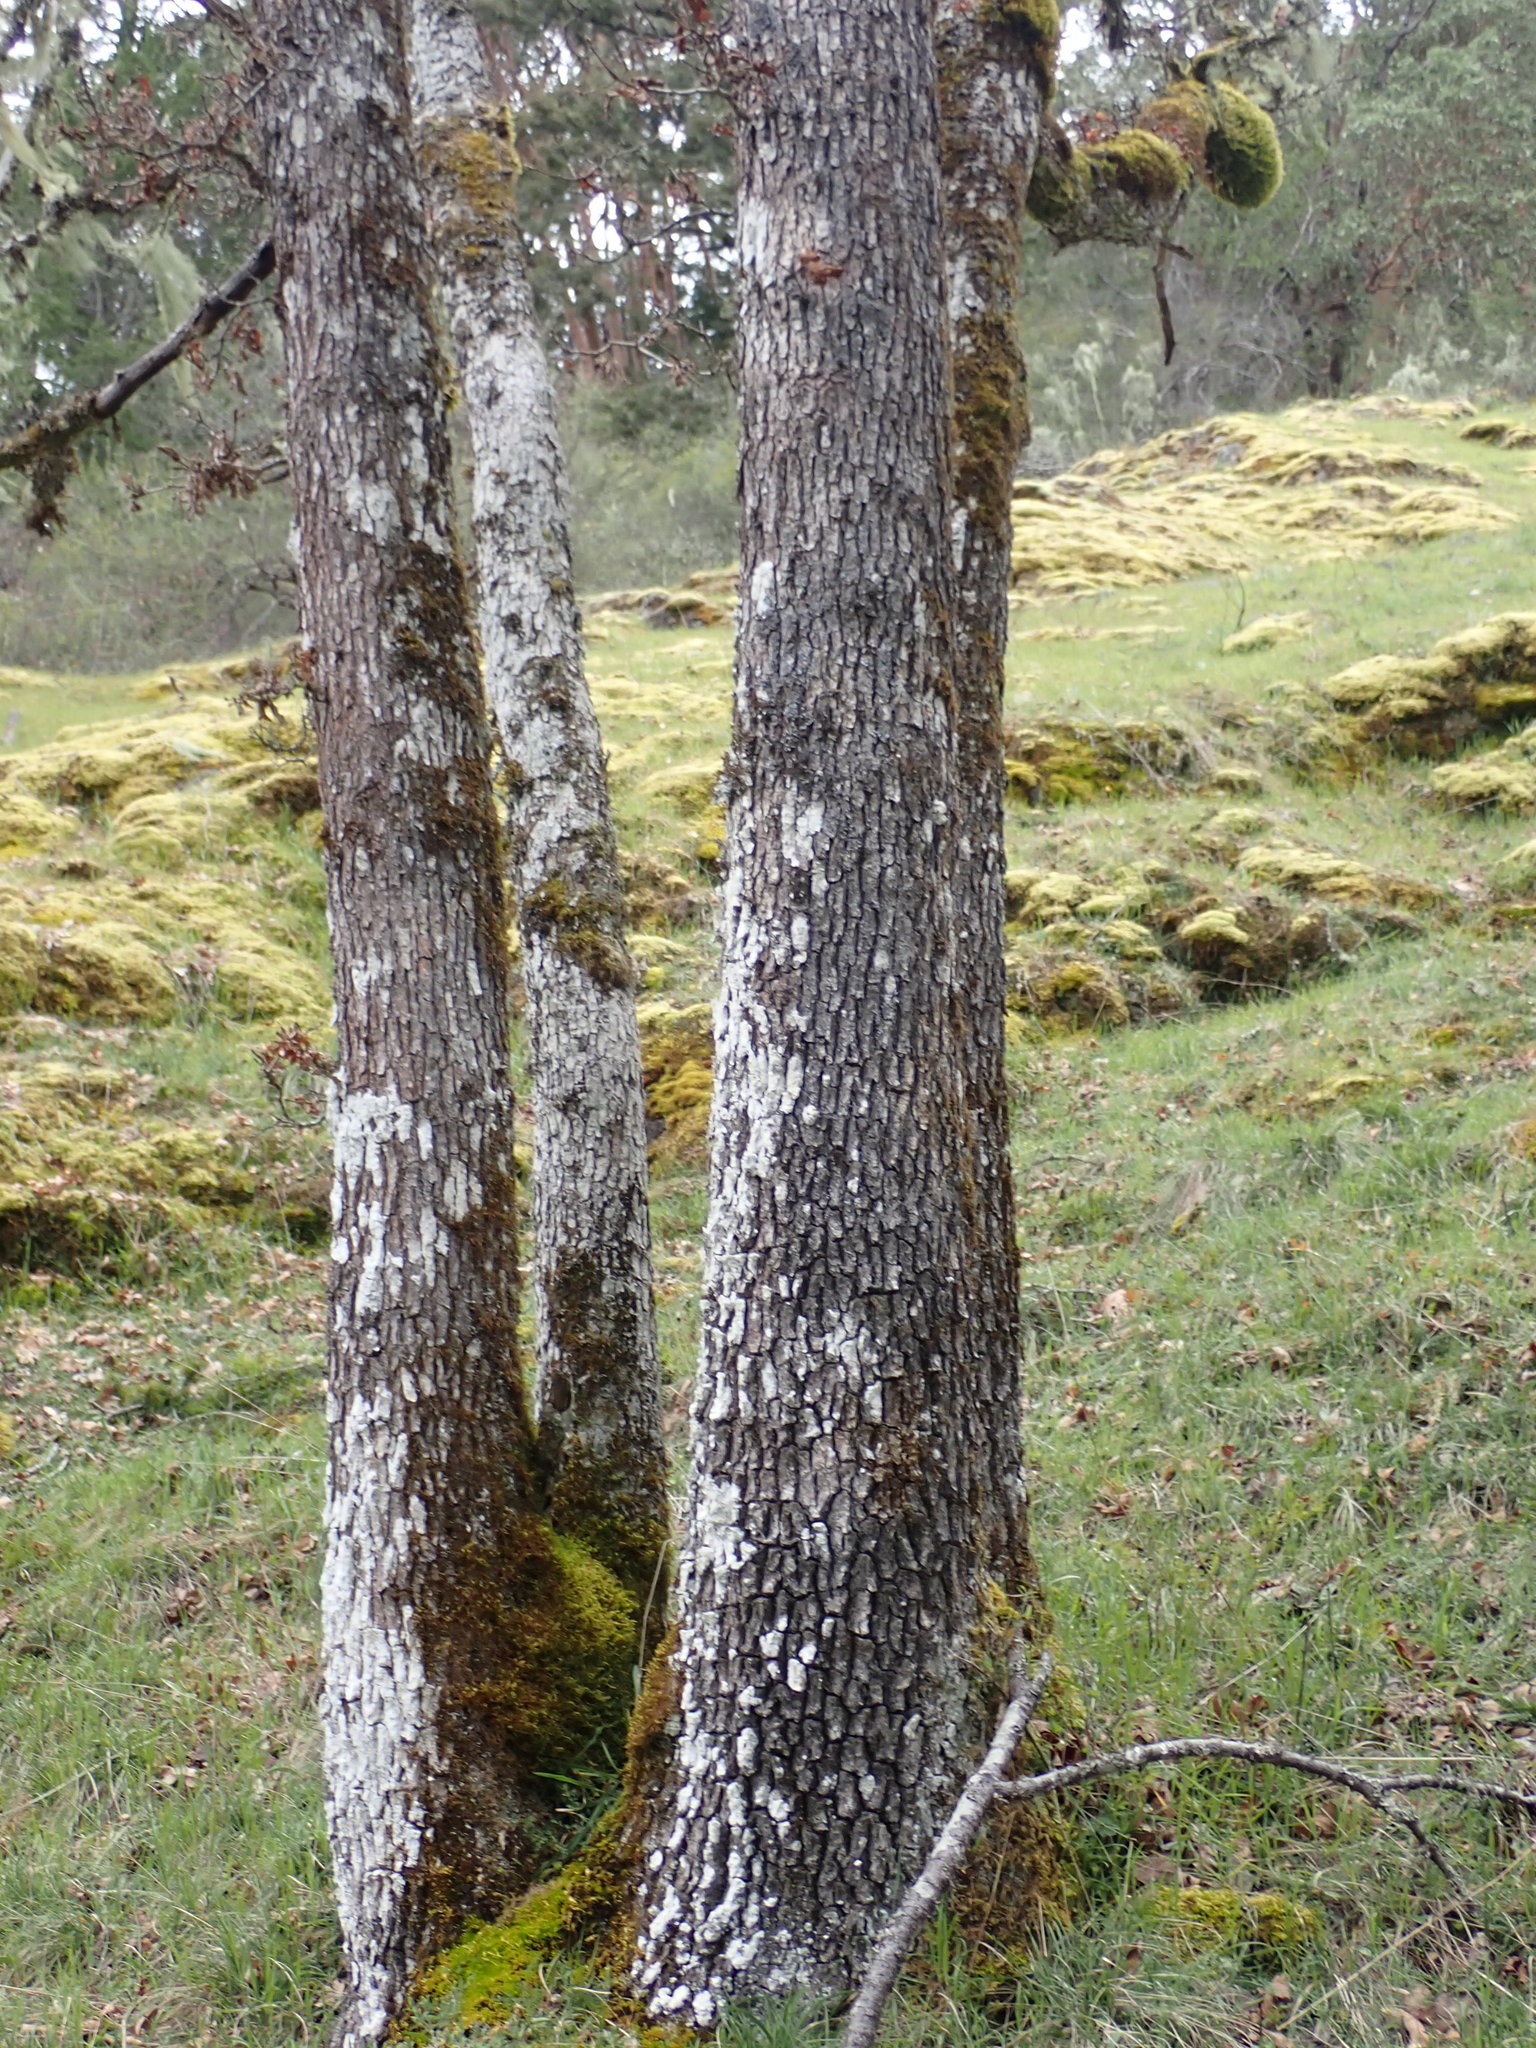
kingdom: Plantae
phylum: Tracheophyta
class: Magnoliopsida
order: Fagales
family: Fagaceae
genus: Quercus
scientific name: Quercus garryana
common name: Garry oak
